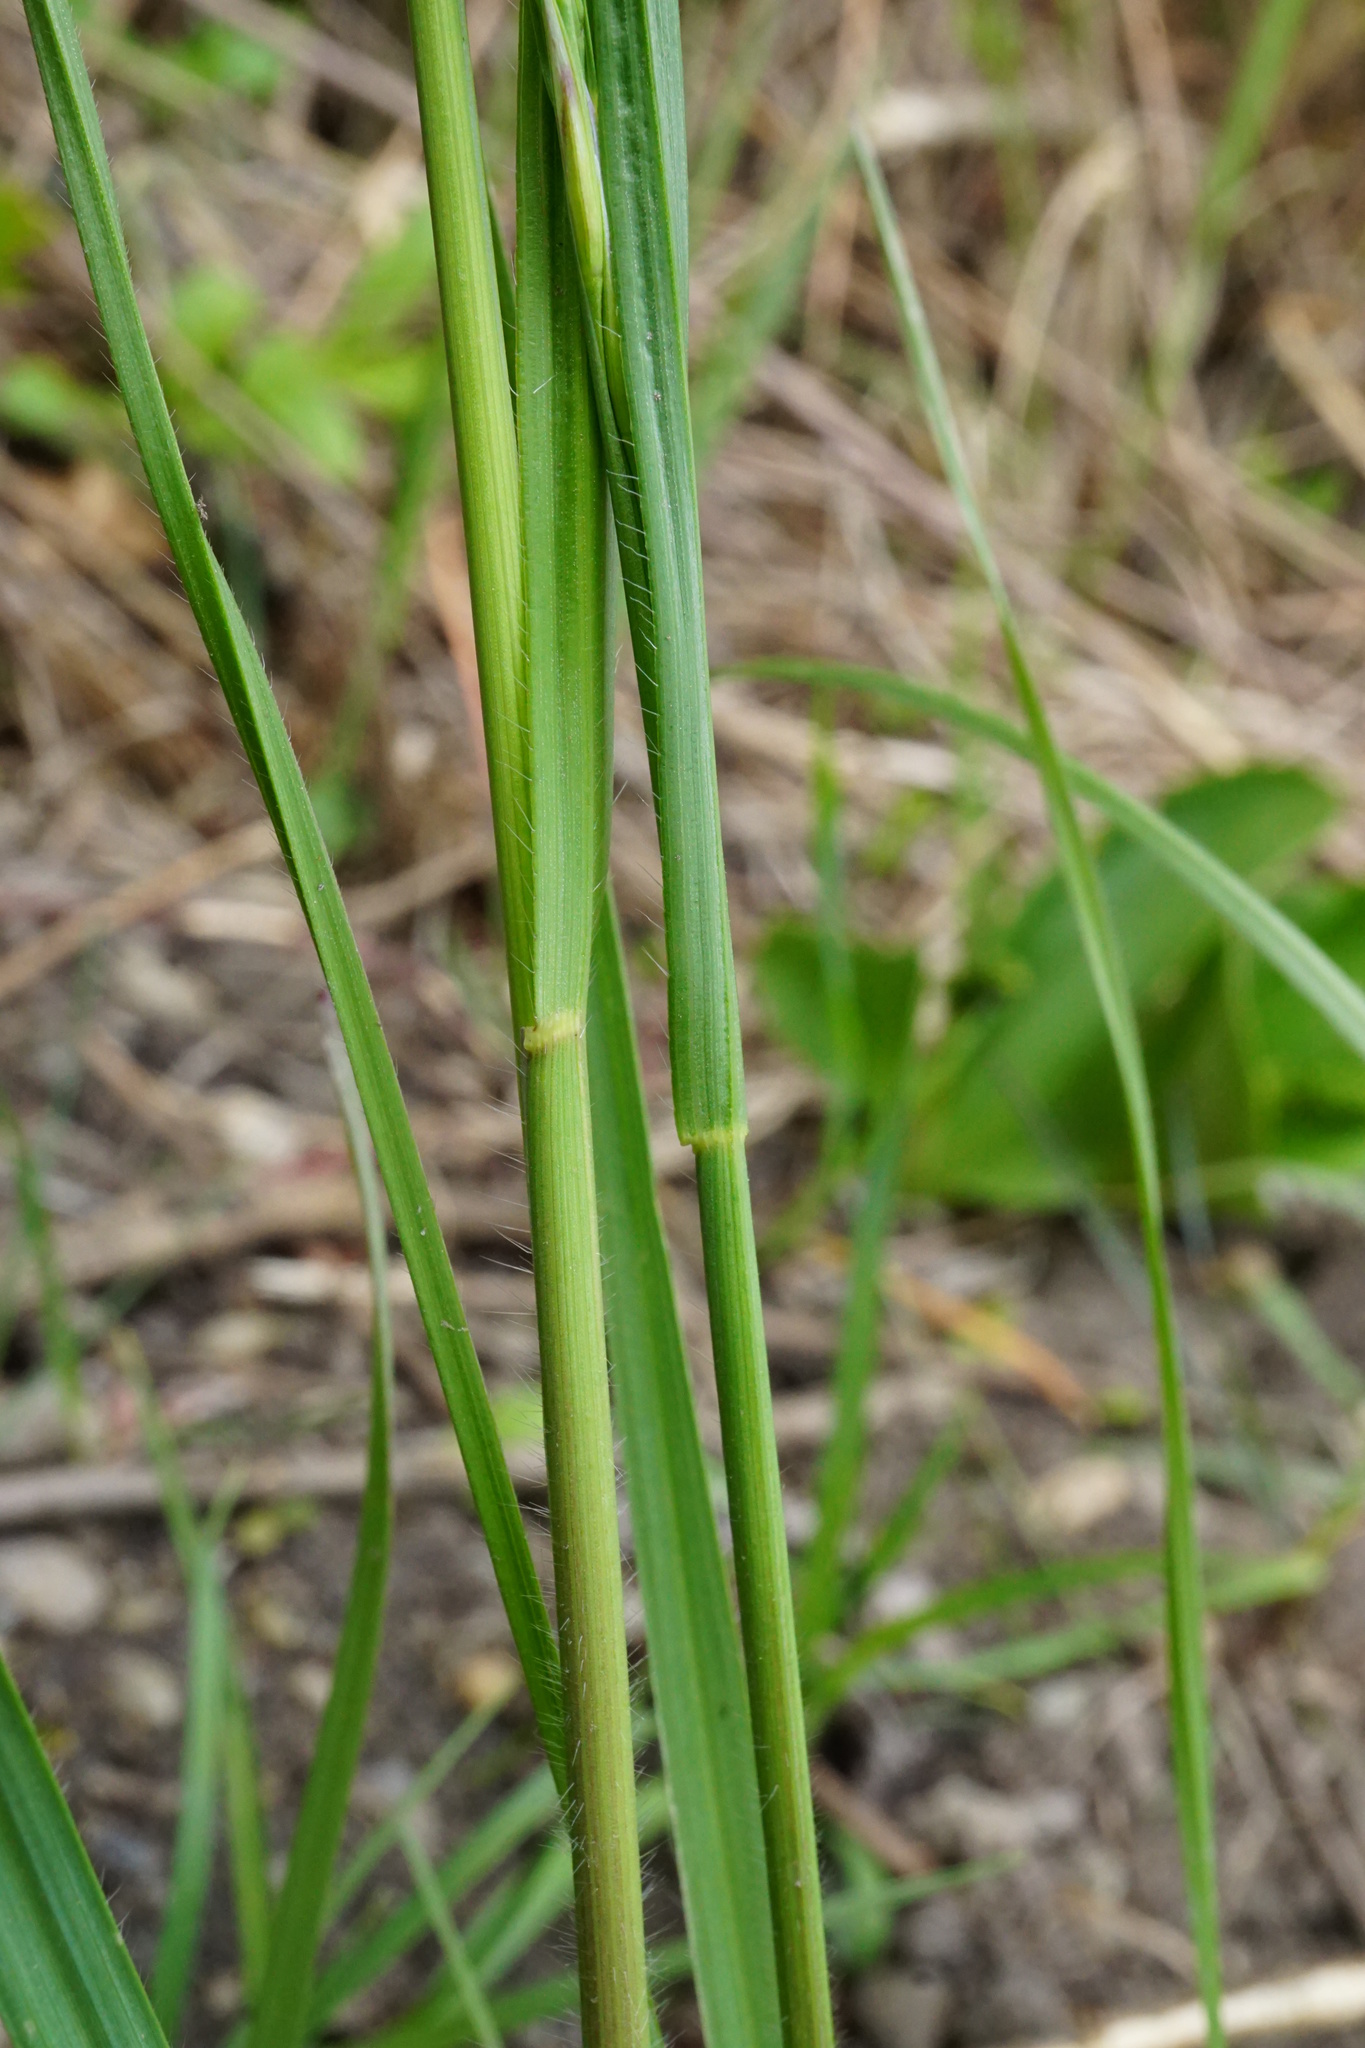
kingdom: Plantae
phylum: Tracheophyta
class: Liliopsida
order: Poales
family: Poaceae
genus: Bromus
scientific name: Bromus erectus
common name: Erect brome
